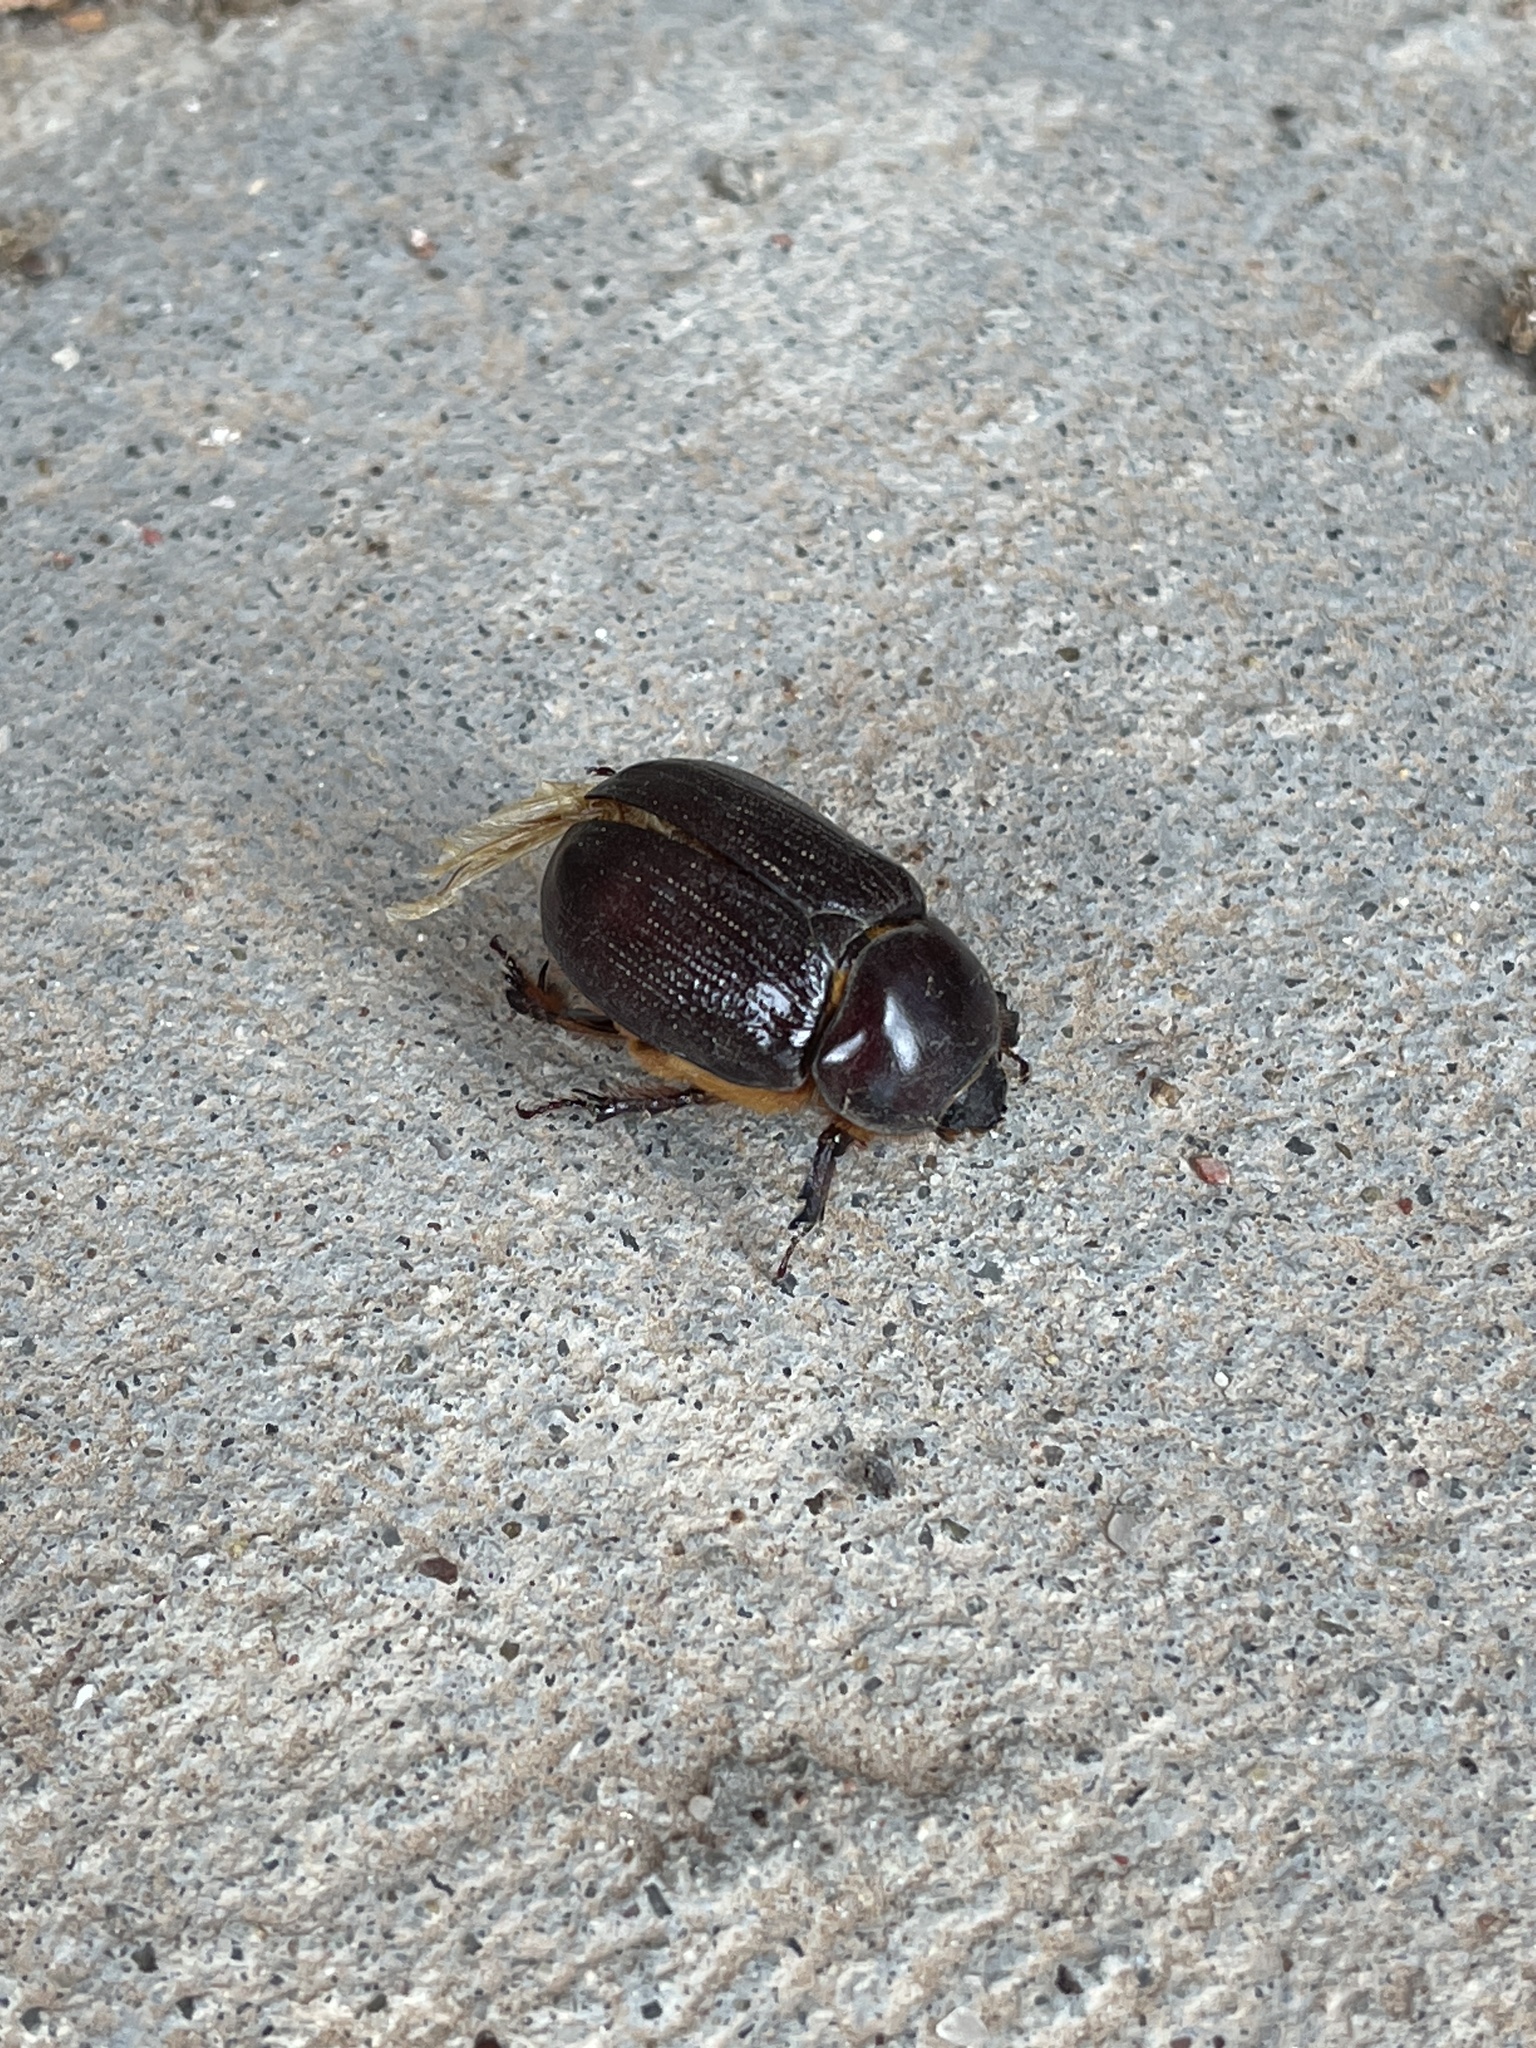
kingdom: Animalia
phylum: Arthropoda
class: Insecta
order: Coleoptera
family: Scarabaeidae
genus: Xyloryctes
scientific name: Xyloryctes thestalus
